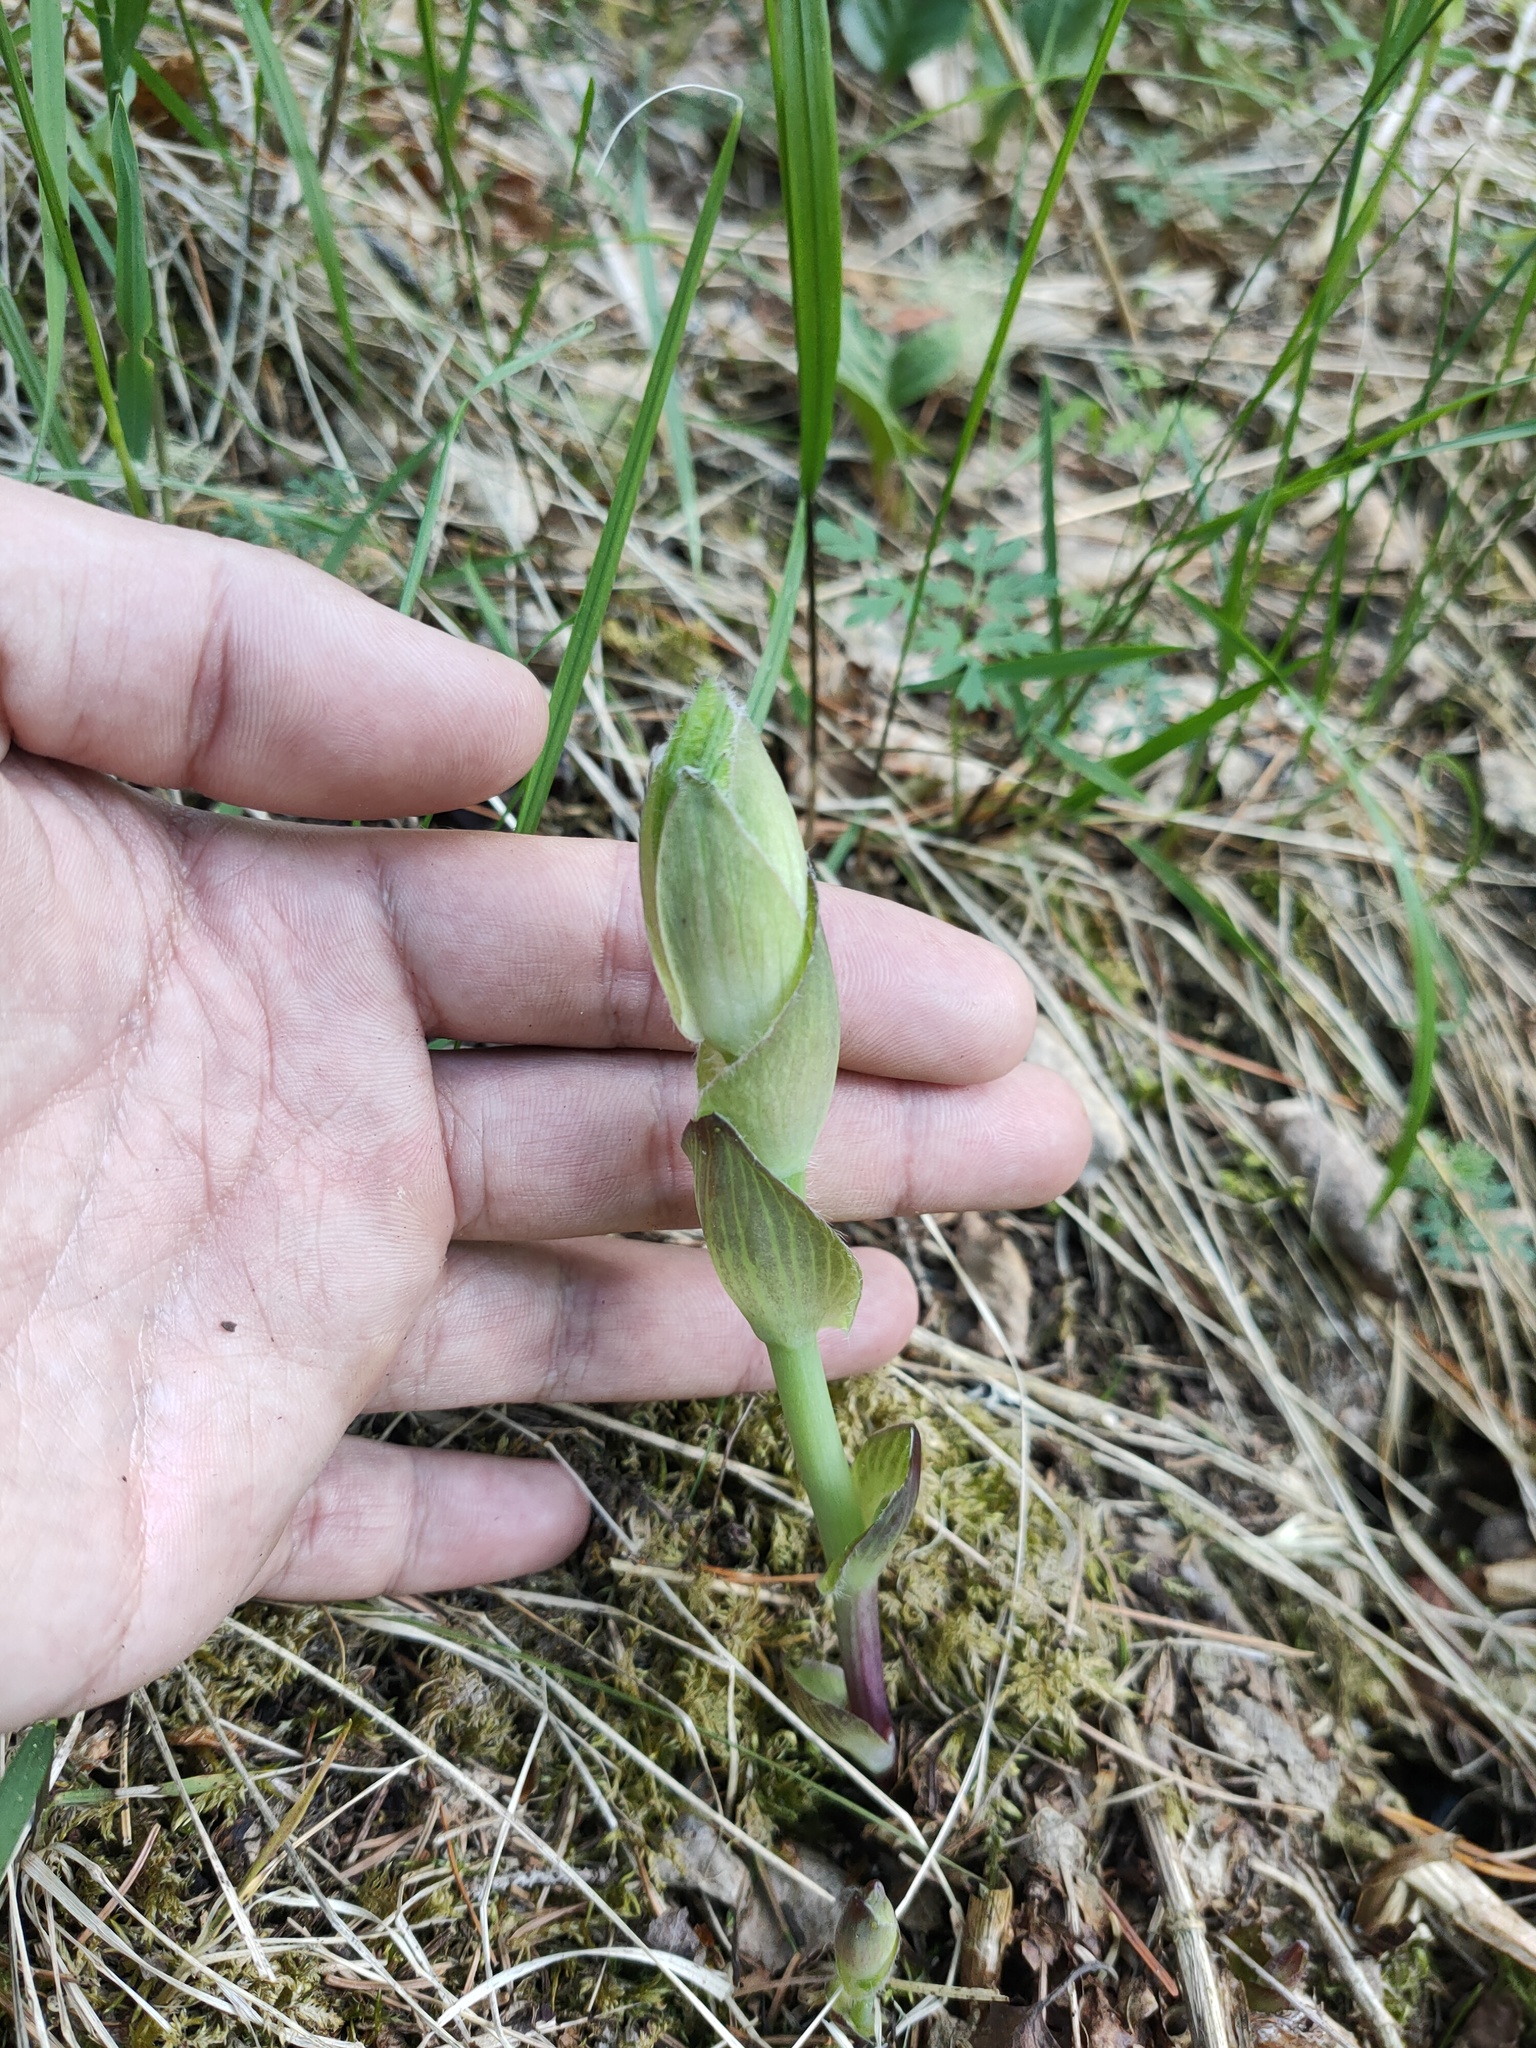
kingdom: Plantae
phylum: Tracheophyta
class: Magnoliopsida
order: Asterales
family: Asteraceae
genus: Ligularia
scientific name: Ligularia sibirica
